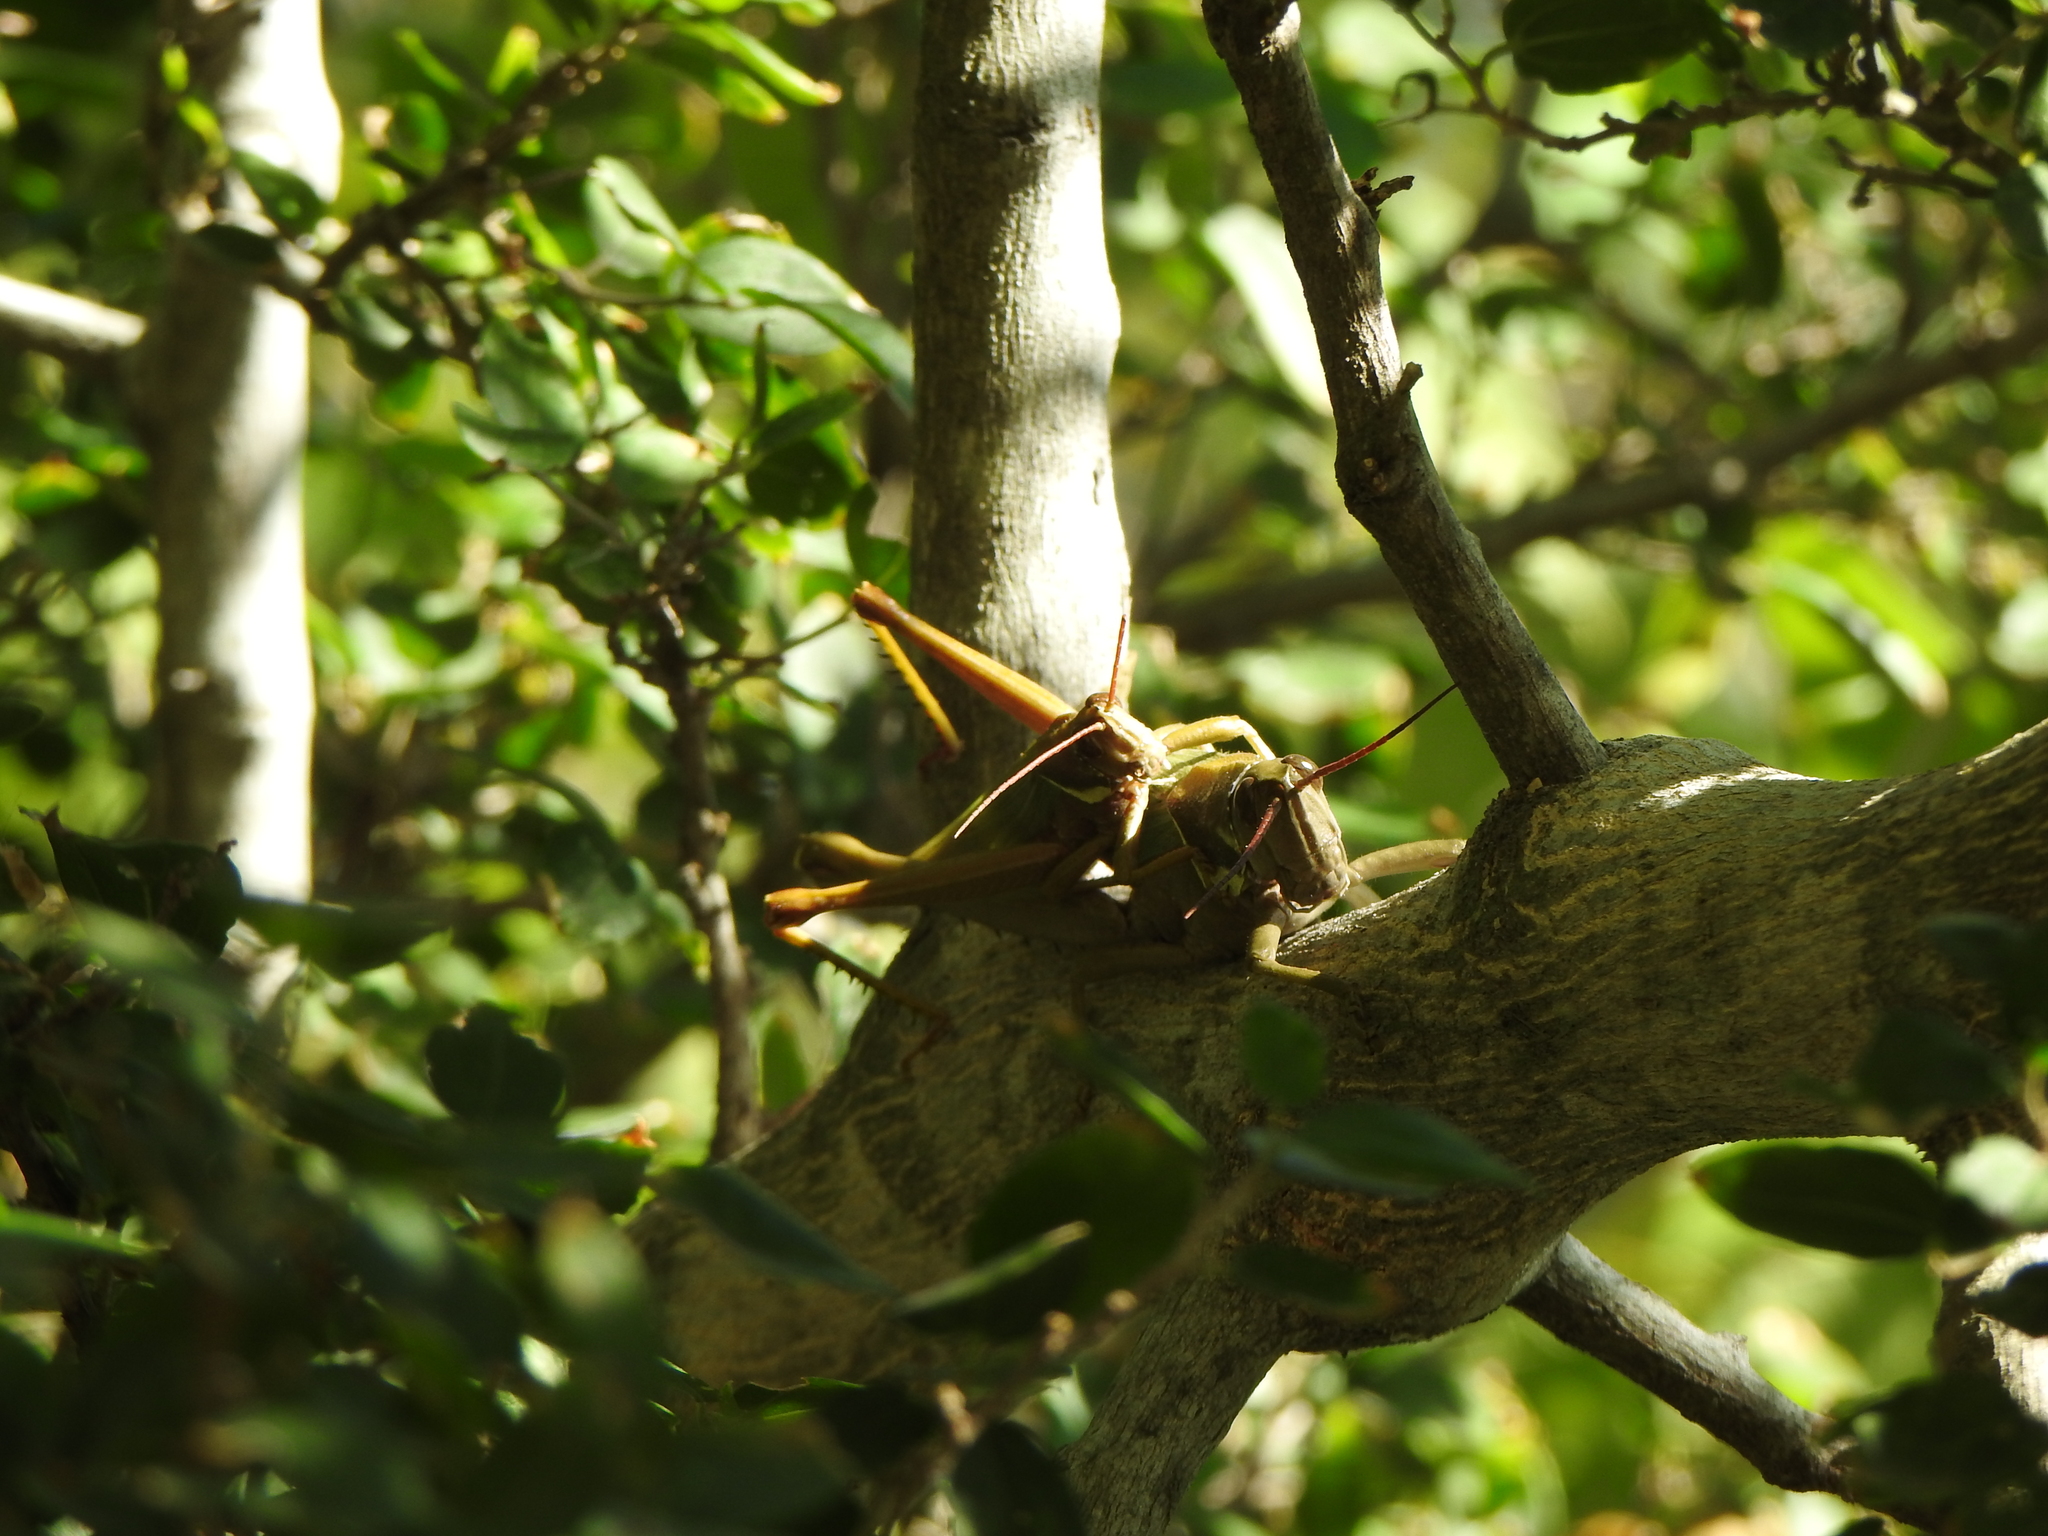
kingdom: Animalia
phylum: Arthropoda
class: Insecta
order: Orthoptera
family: Romaleidae
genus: Coryacris
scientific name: Coryacris angustipennis
